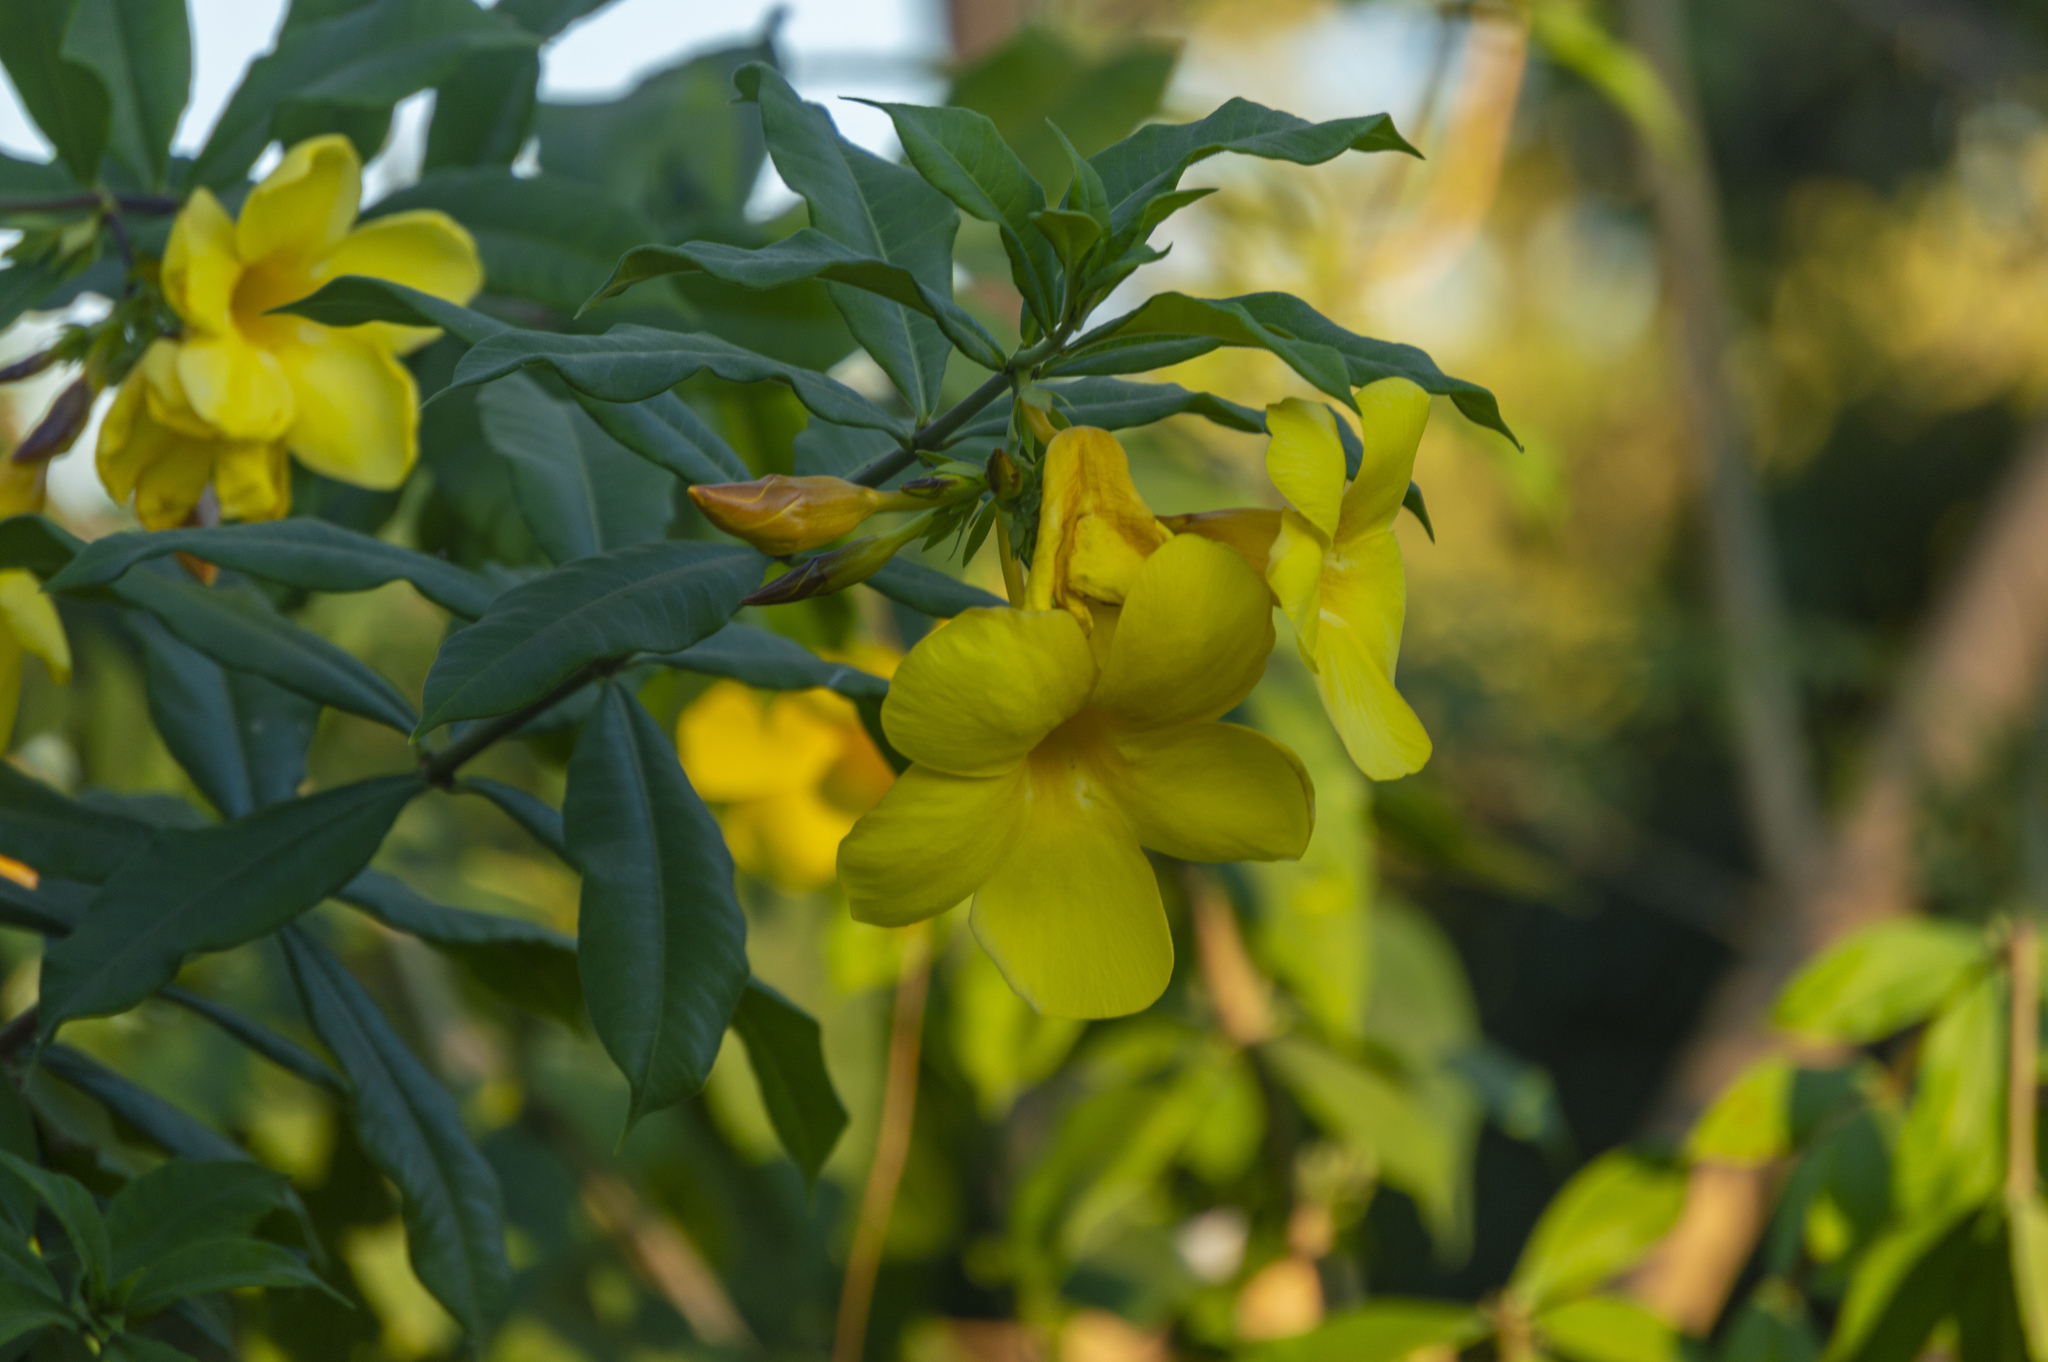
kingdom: Plantae
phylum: Tracheophyta
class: Magnoliopsida
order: Gentianales
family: Apocynaceae
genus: Allamanda
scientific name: Allamanda cathartica
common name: Golden trumpet
